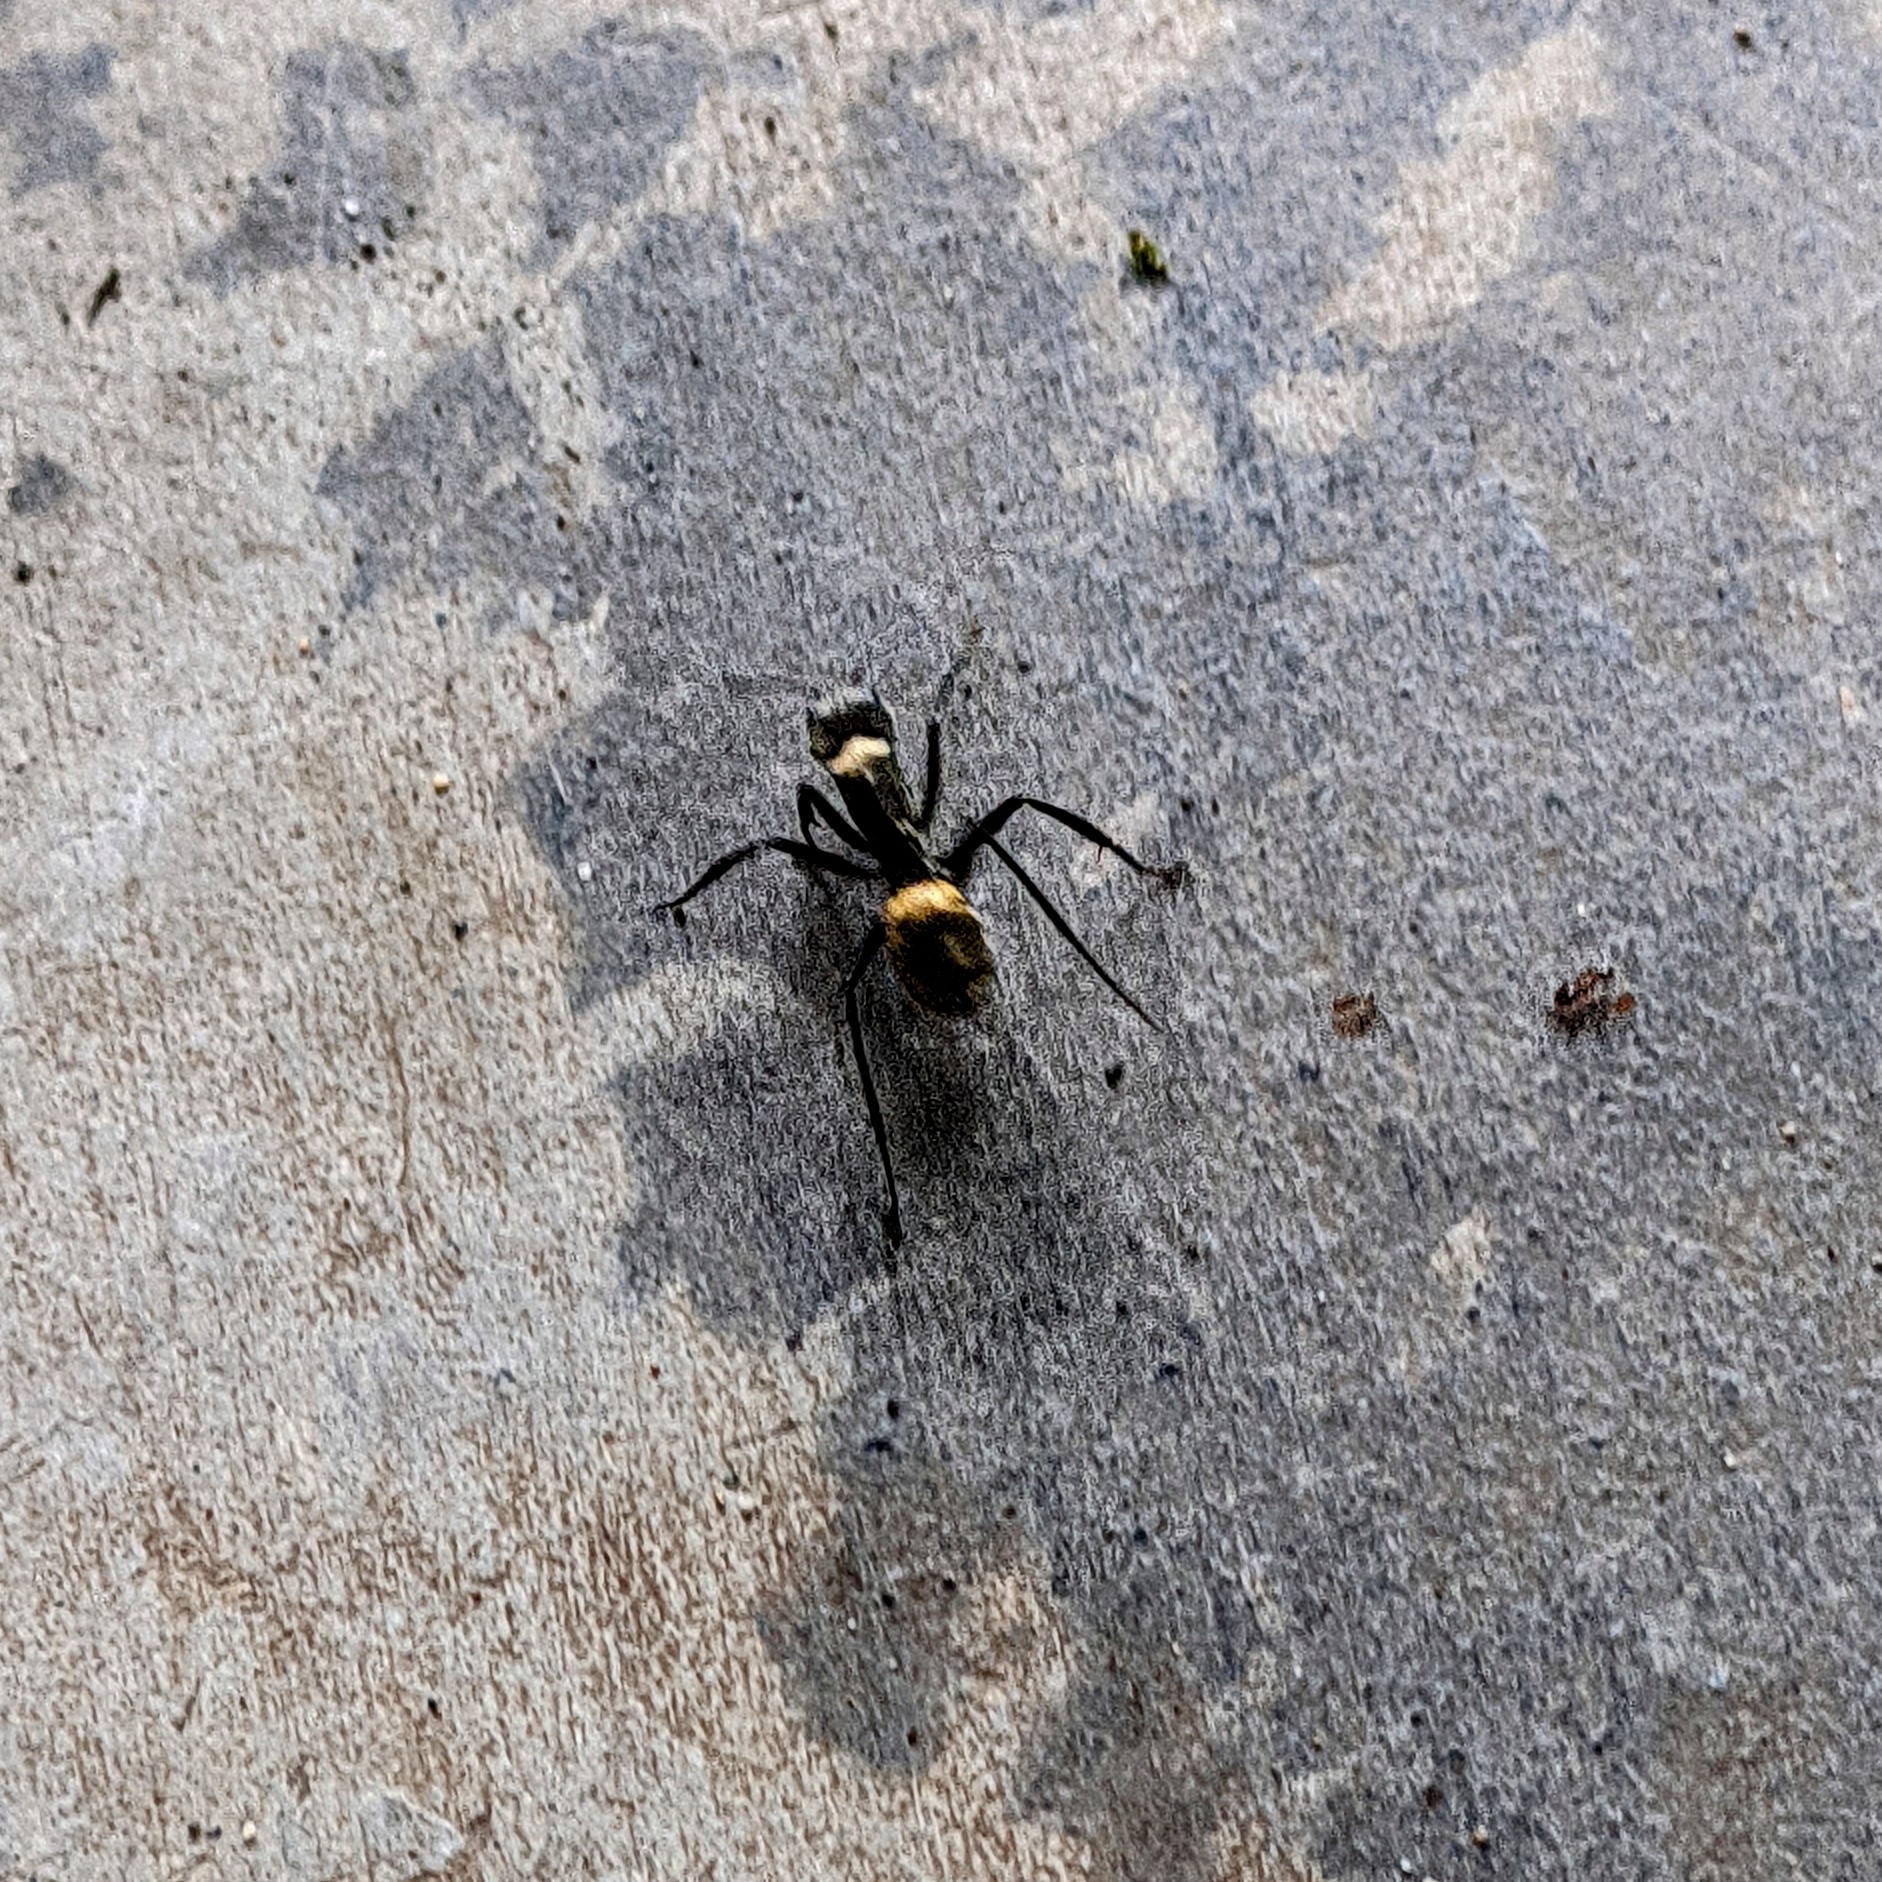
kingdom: Animalia
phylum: Arthropoda
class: Insecta
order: Hymenoptera
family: Formicidae
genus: Camponotus
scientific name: Camponotus sericeiventris
